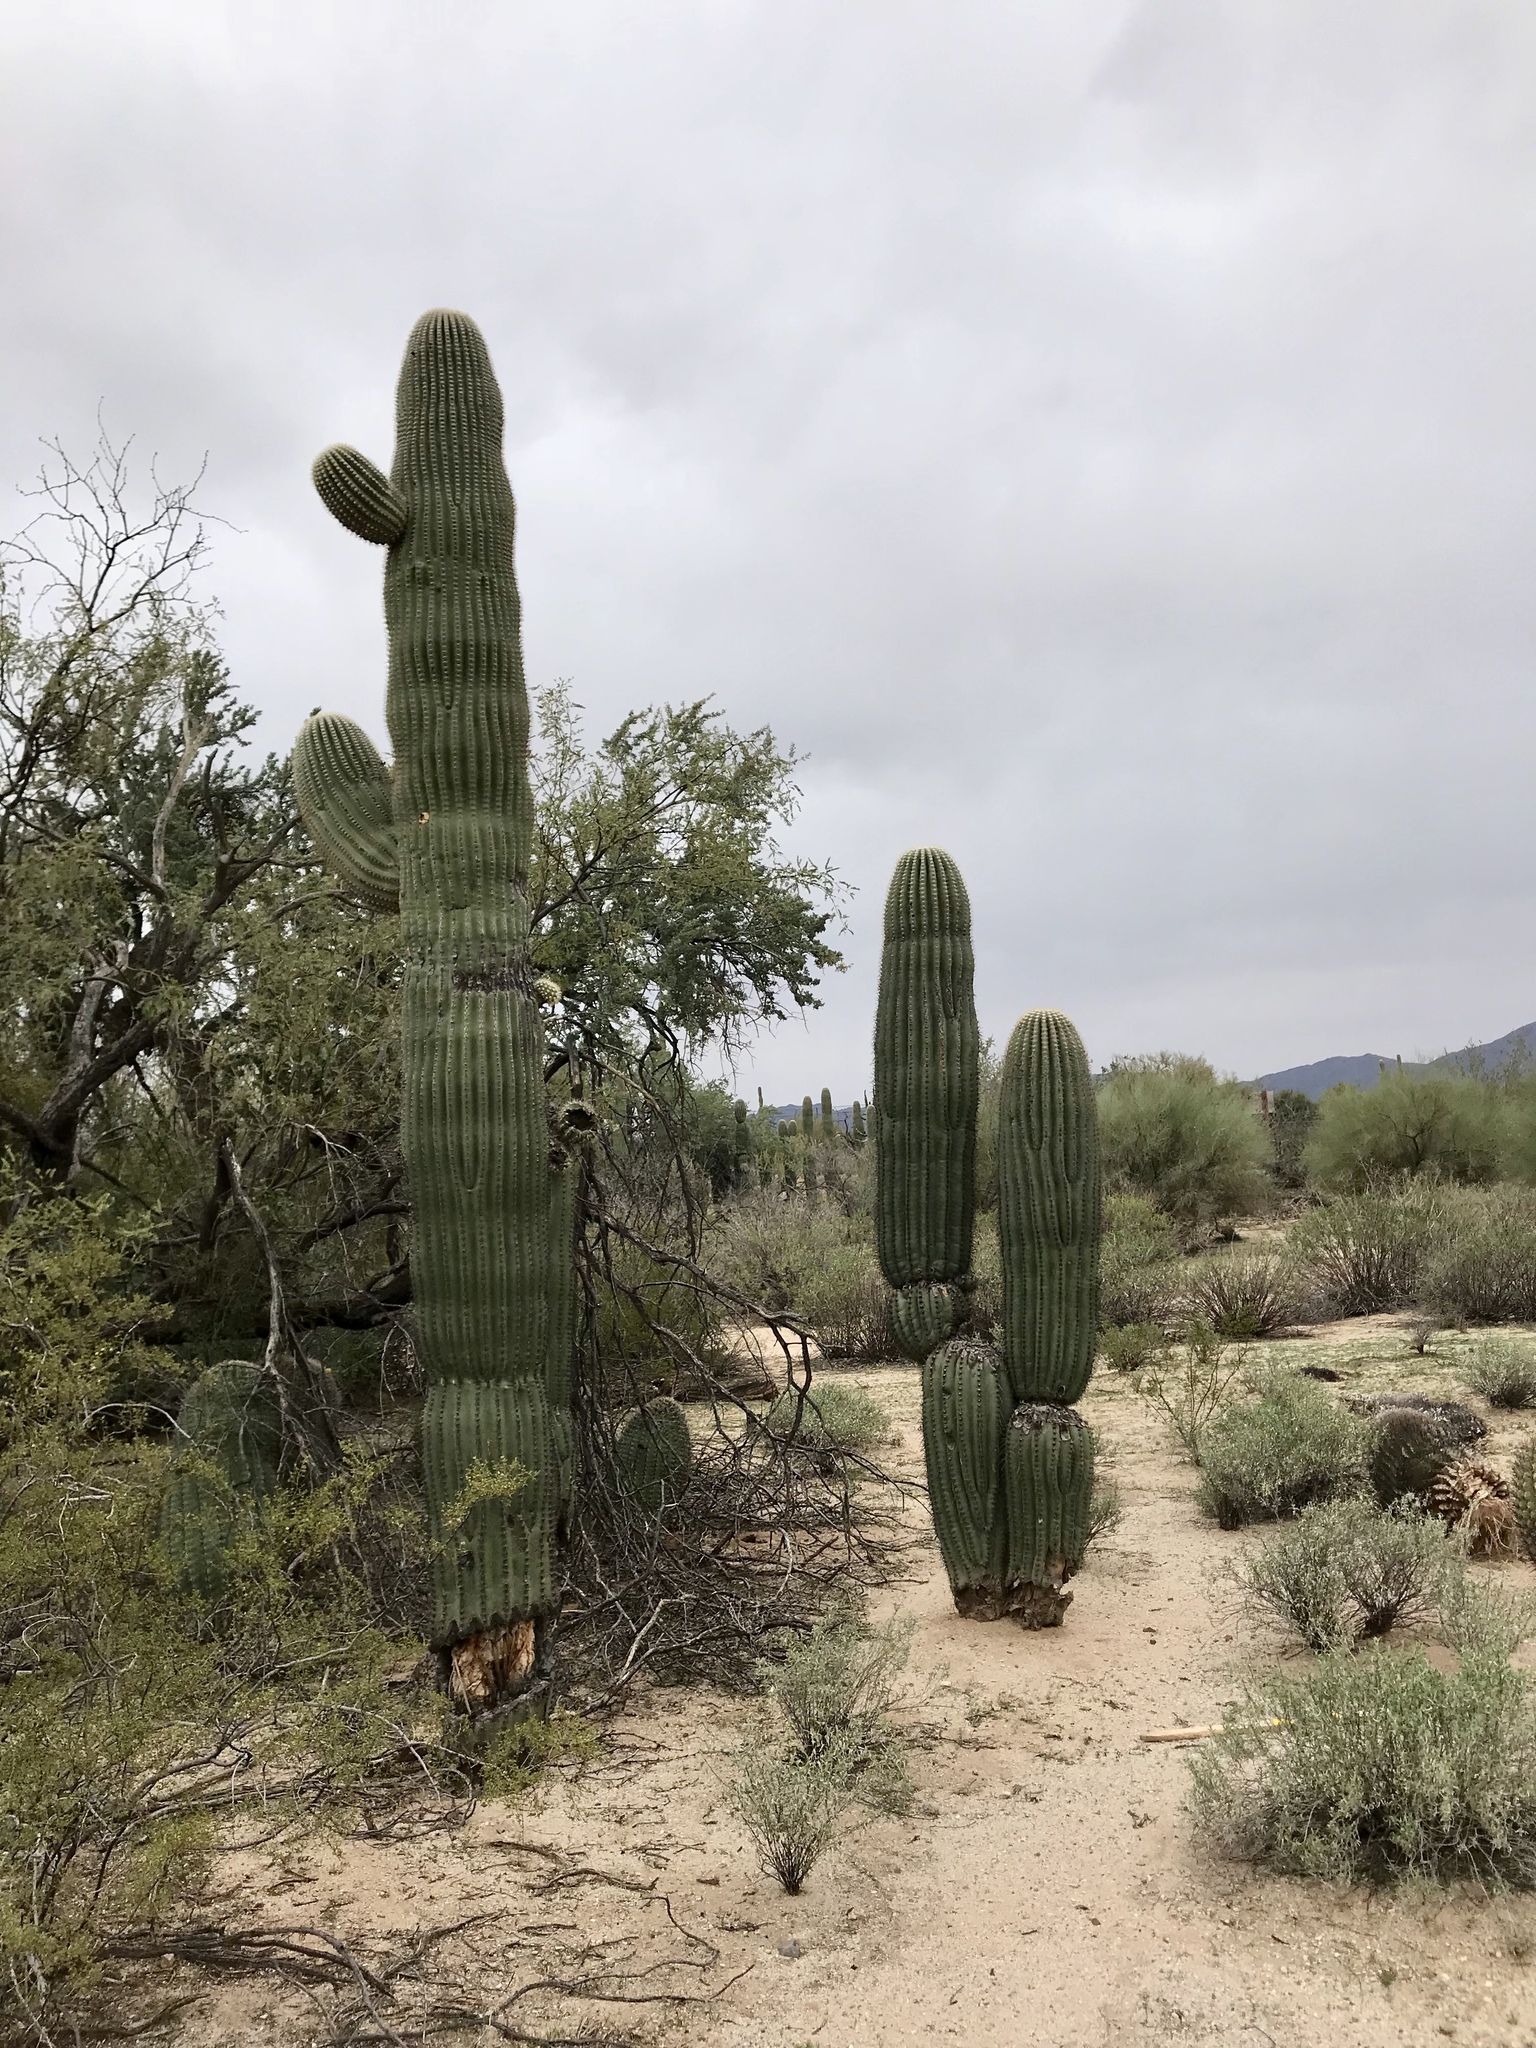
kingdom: Plantae
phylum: Tracheophyta
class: Magnoliopsida
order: Caryophyllales
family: Cactaceae
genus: Carnegiea
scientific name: Carnegiea gigantea
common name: Saguaro
